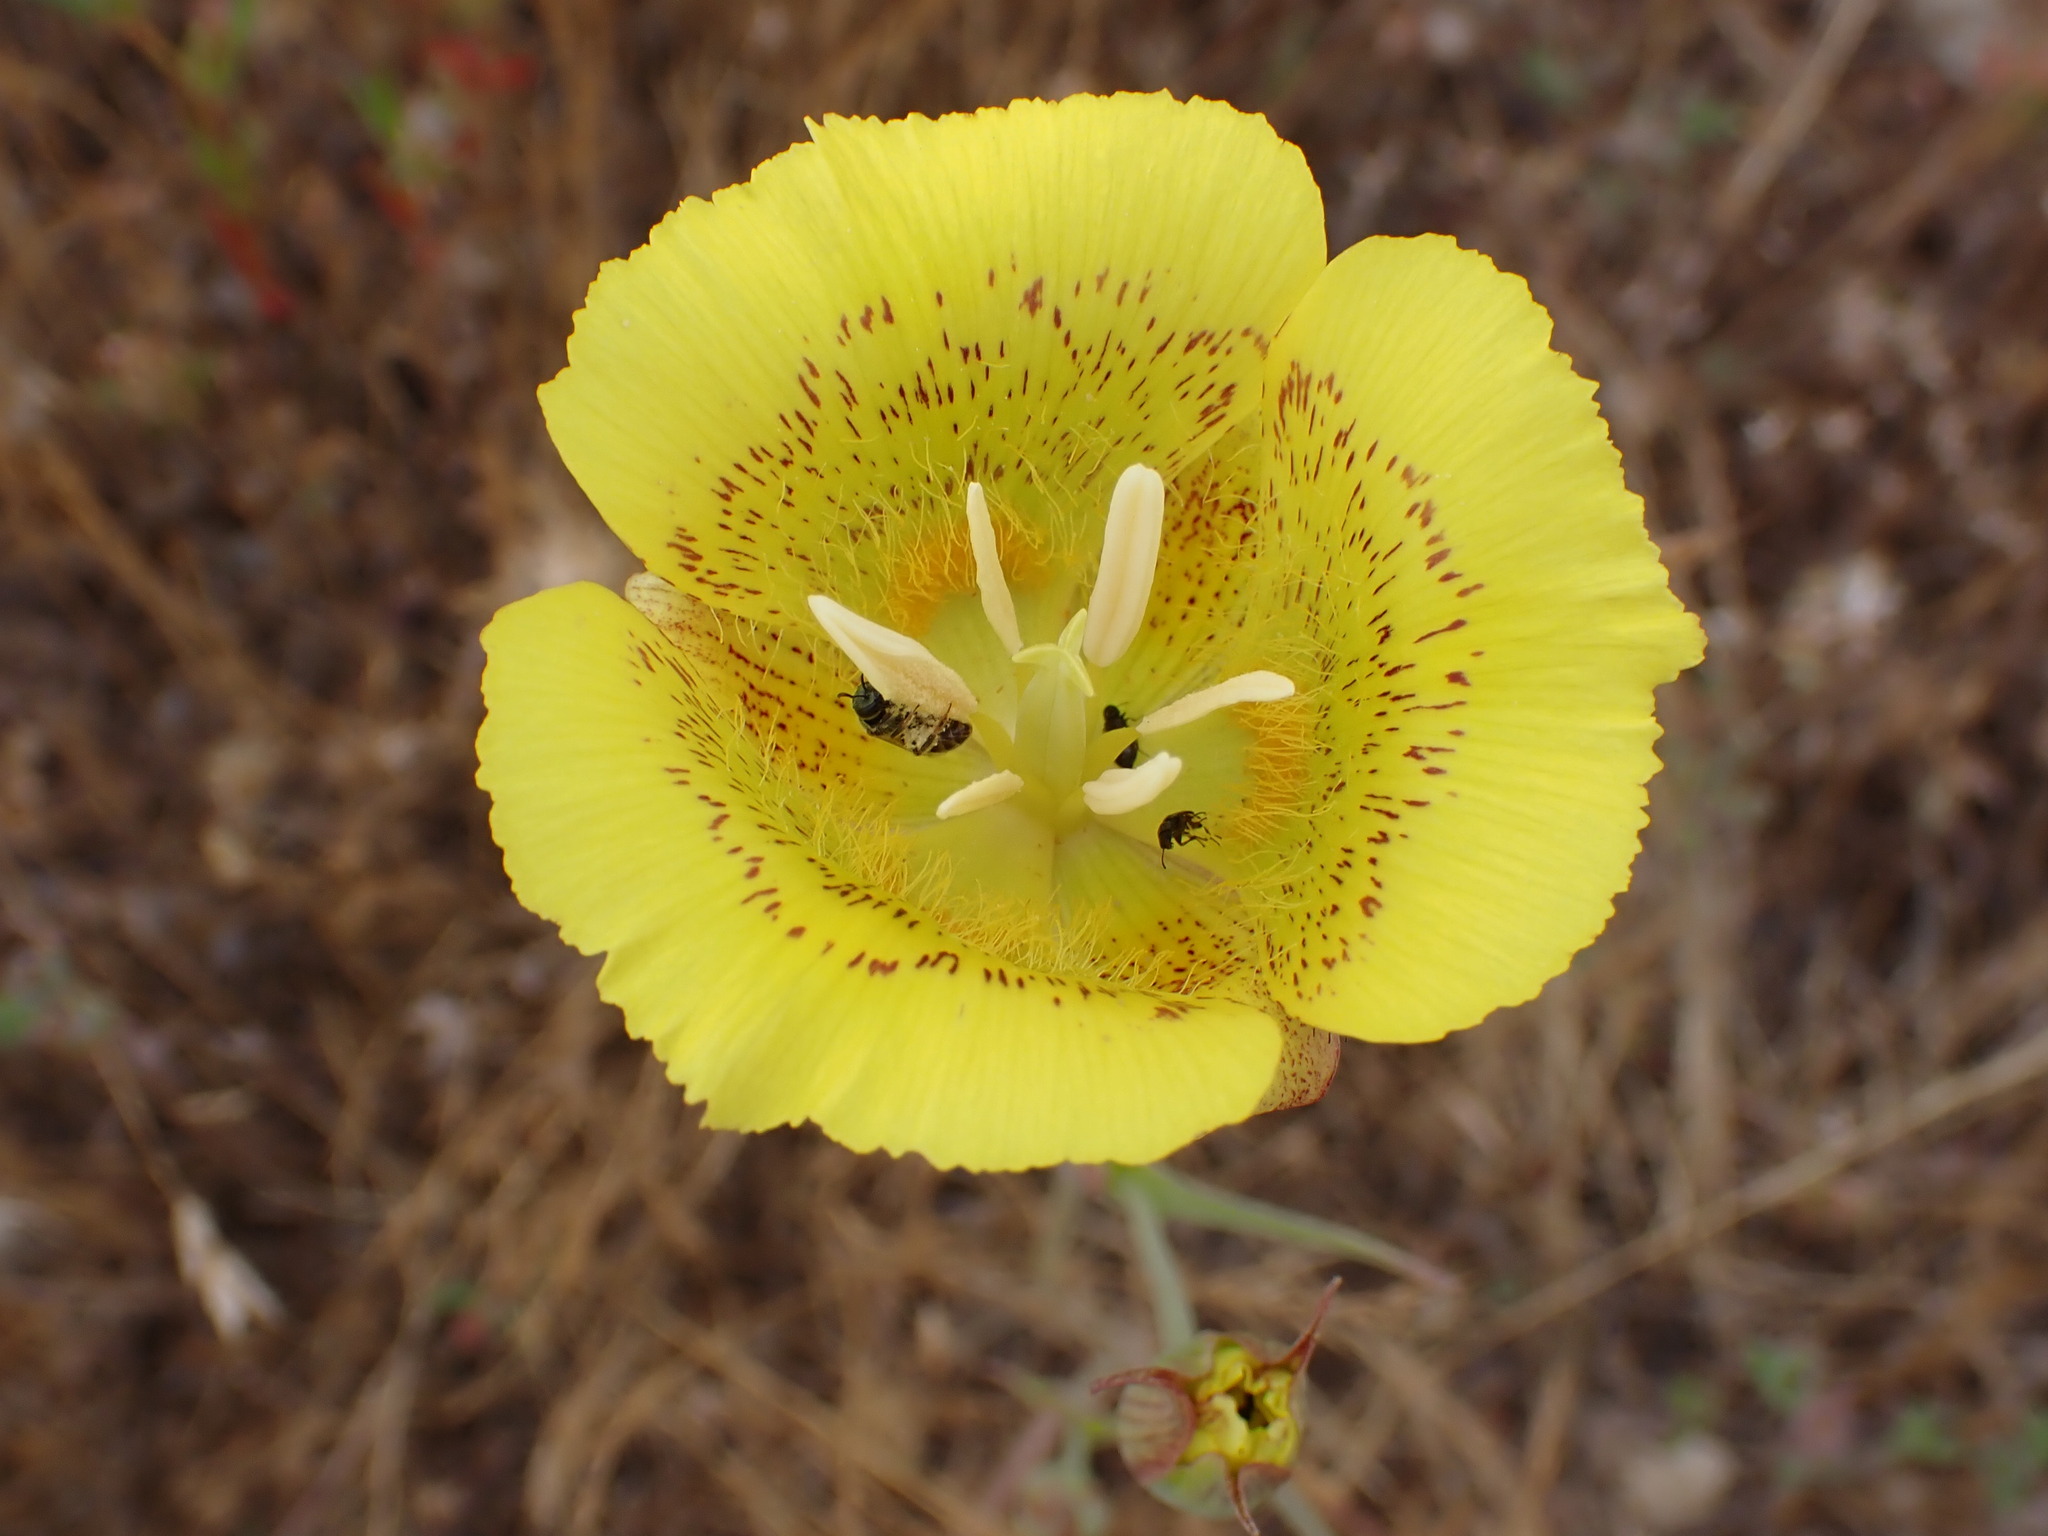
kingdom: Plantae
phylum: Tracheophyta
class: Liliopsida
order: Liliales
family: Liliaceae
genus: Calochortus
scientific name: Calochortus luteus
